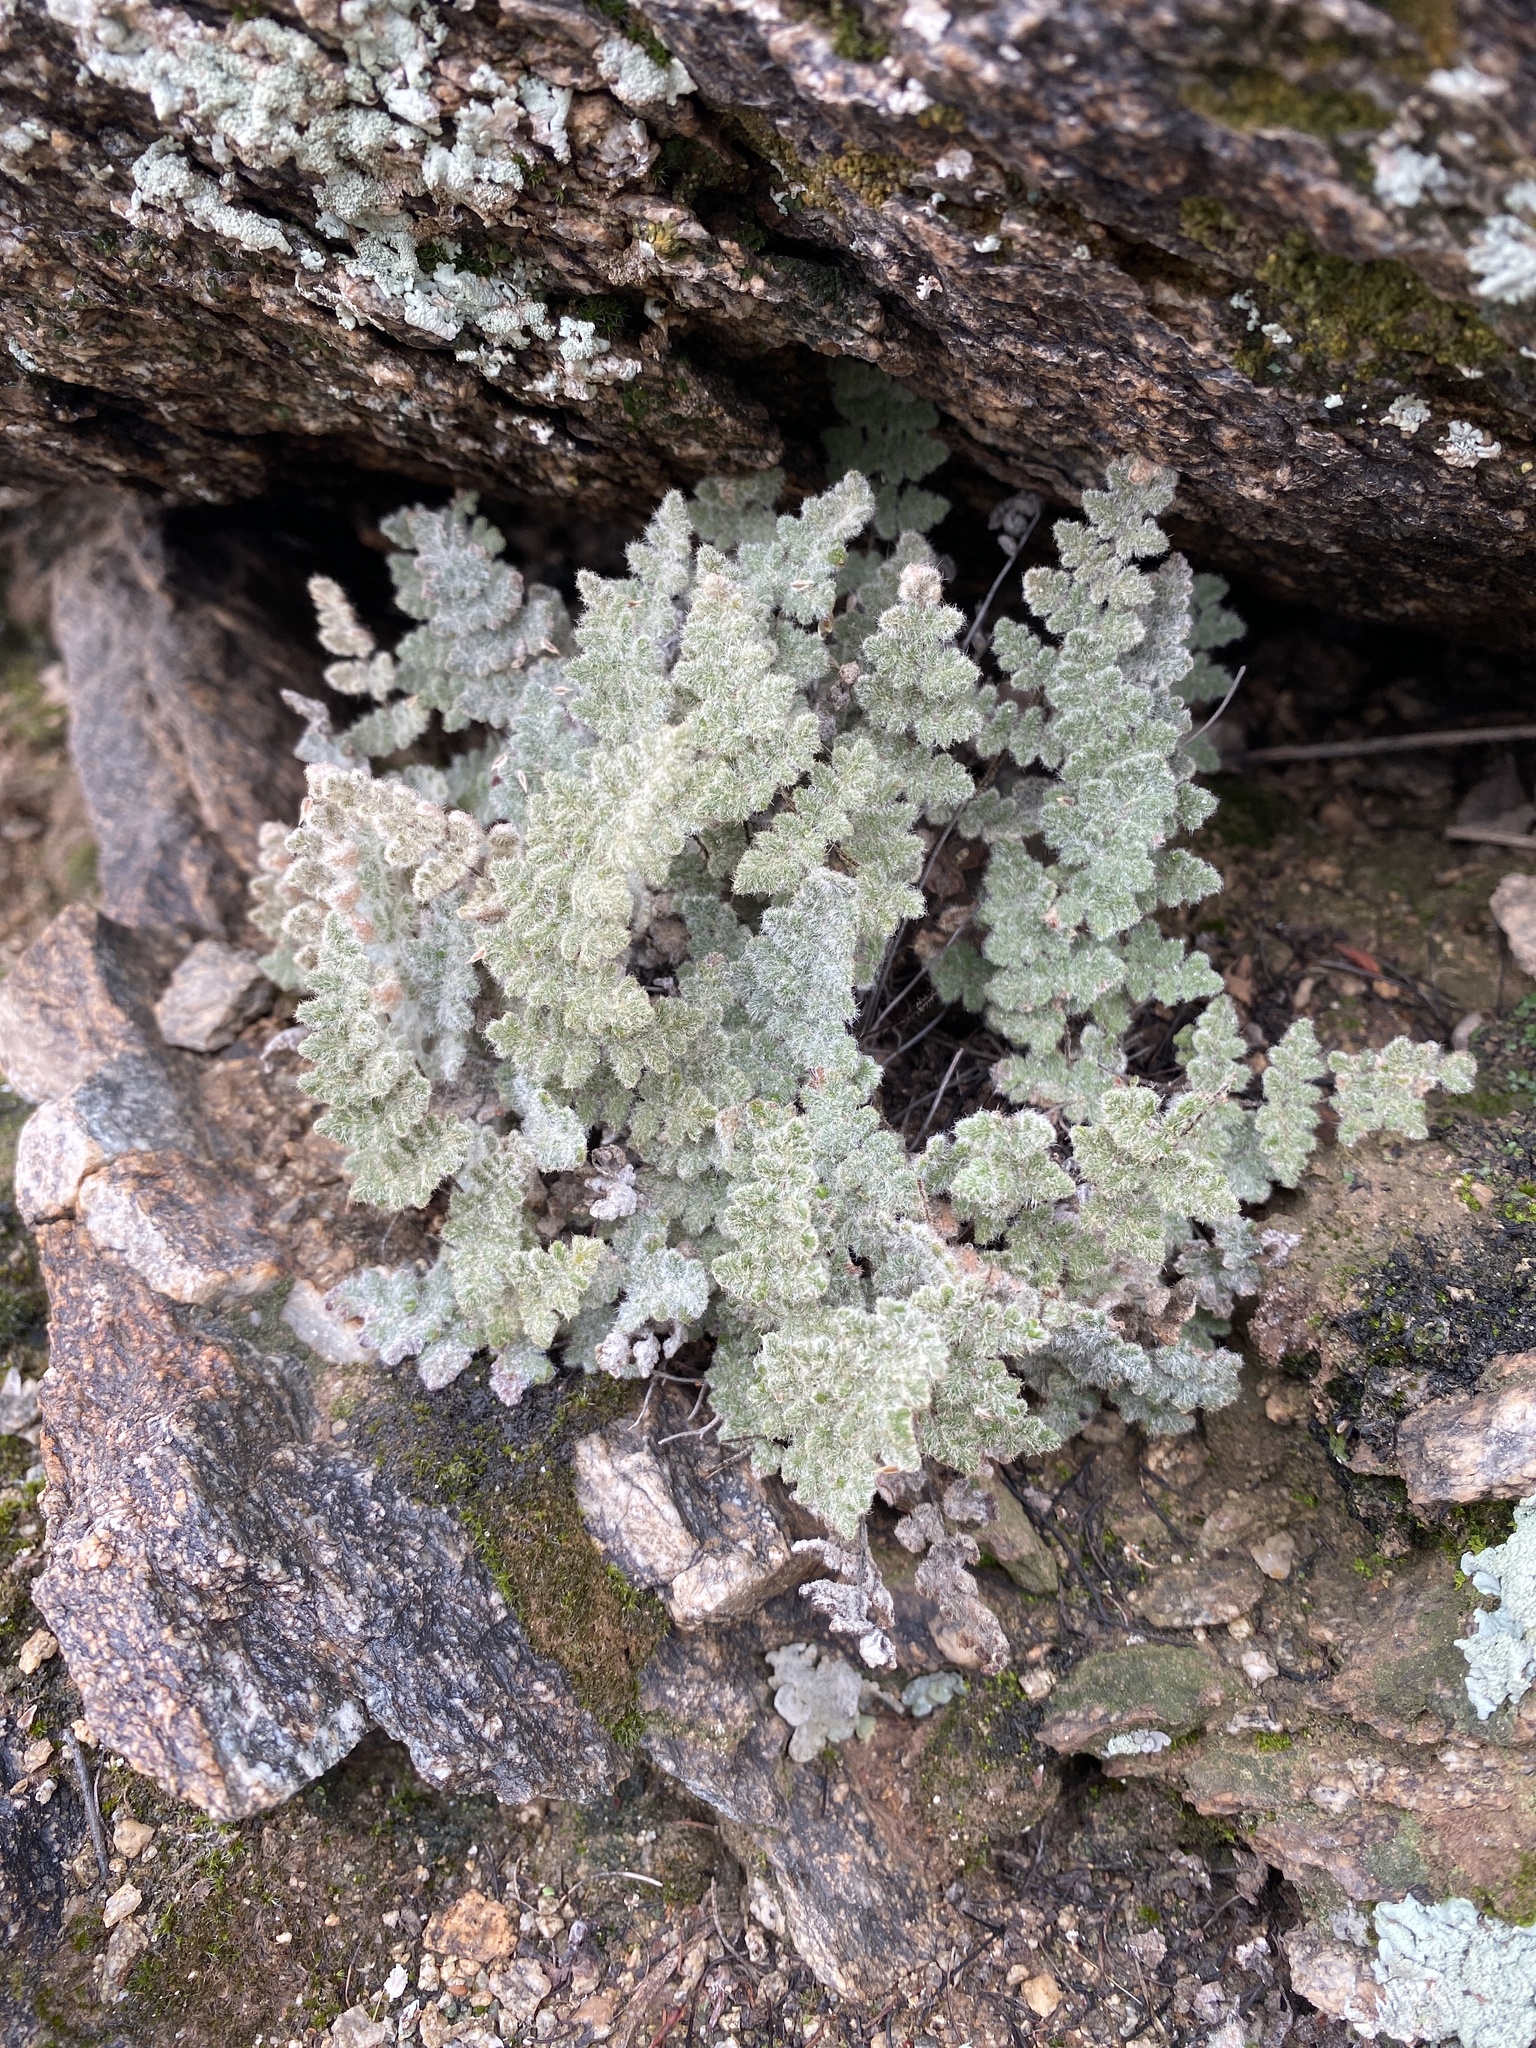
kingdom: Plantae
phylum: Tracheophyta
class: Polypodiopsida
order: Polypodiales
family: Pteridaceae
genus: Myriopteris
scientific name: Myriopteris parryi
